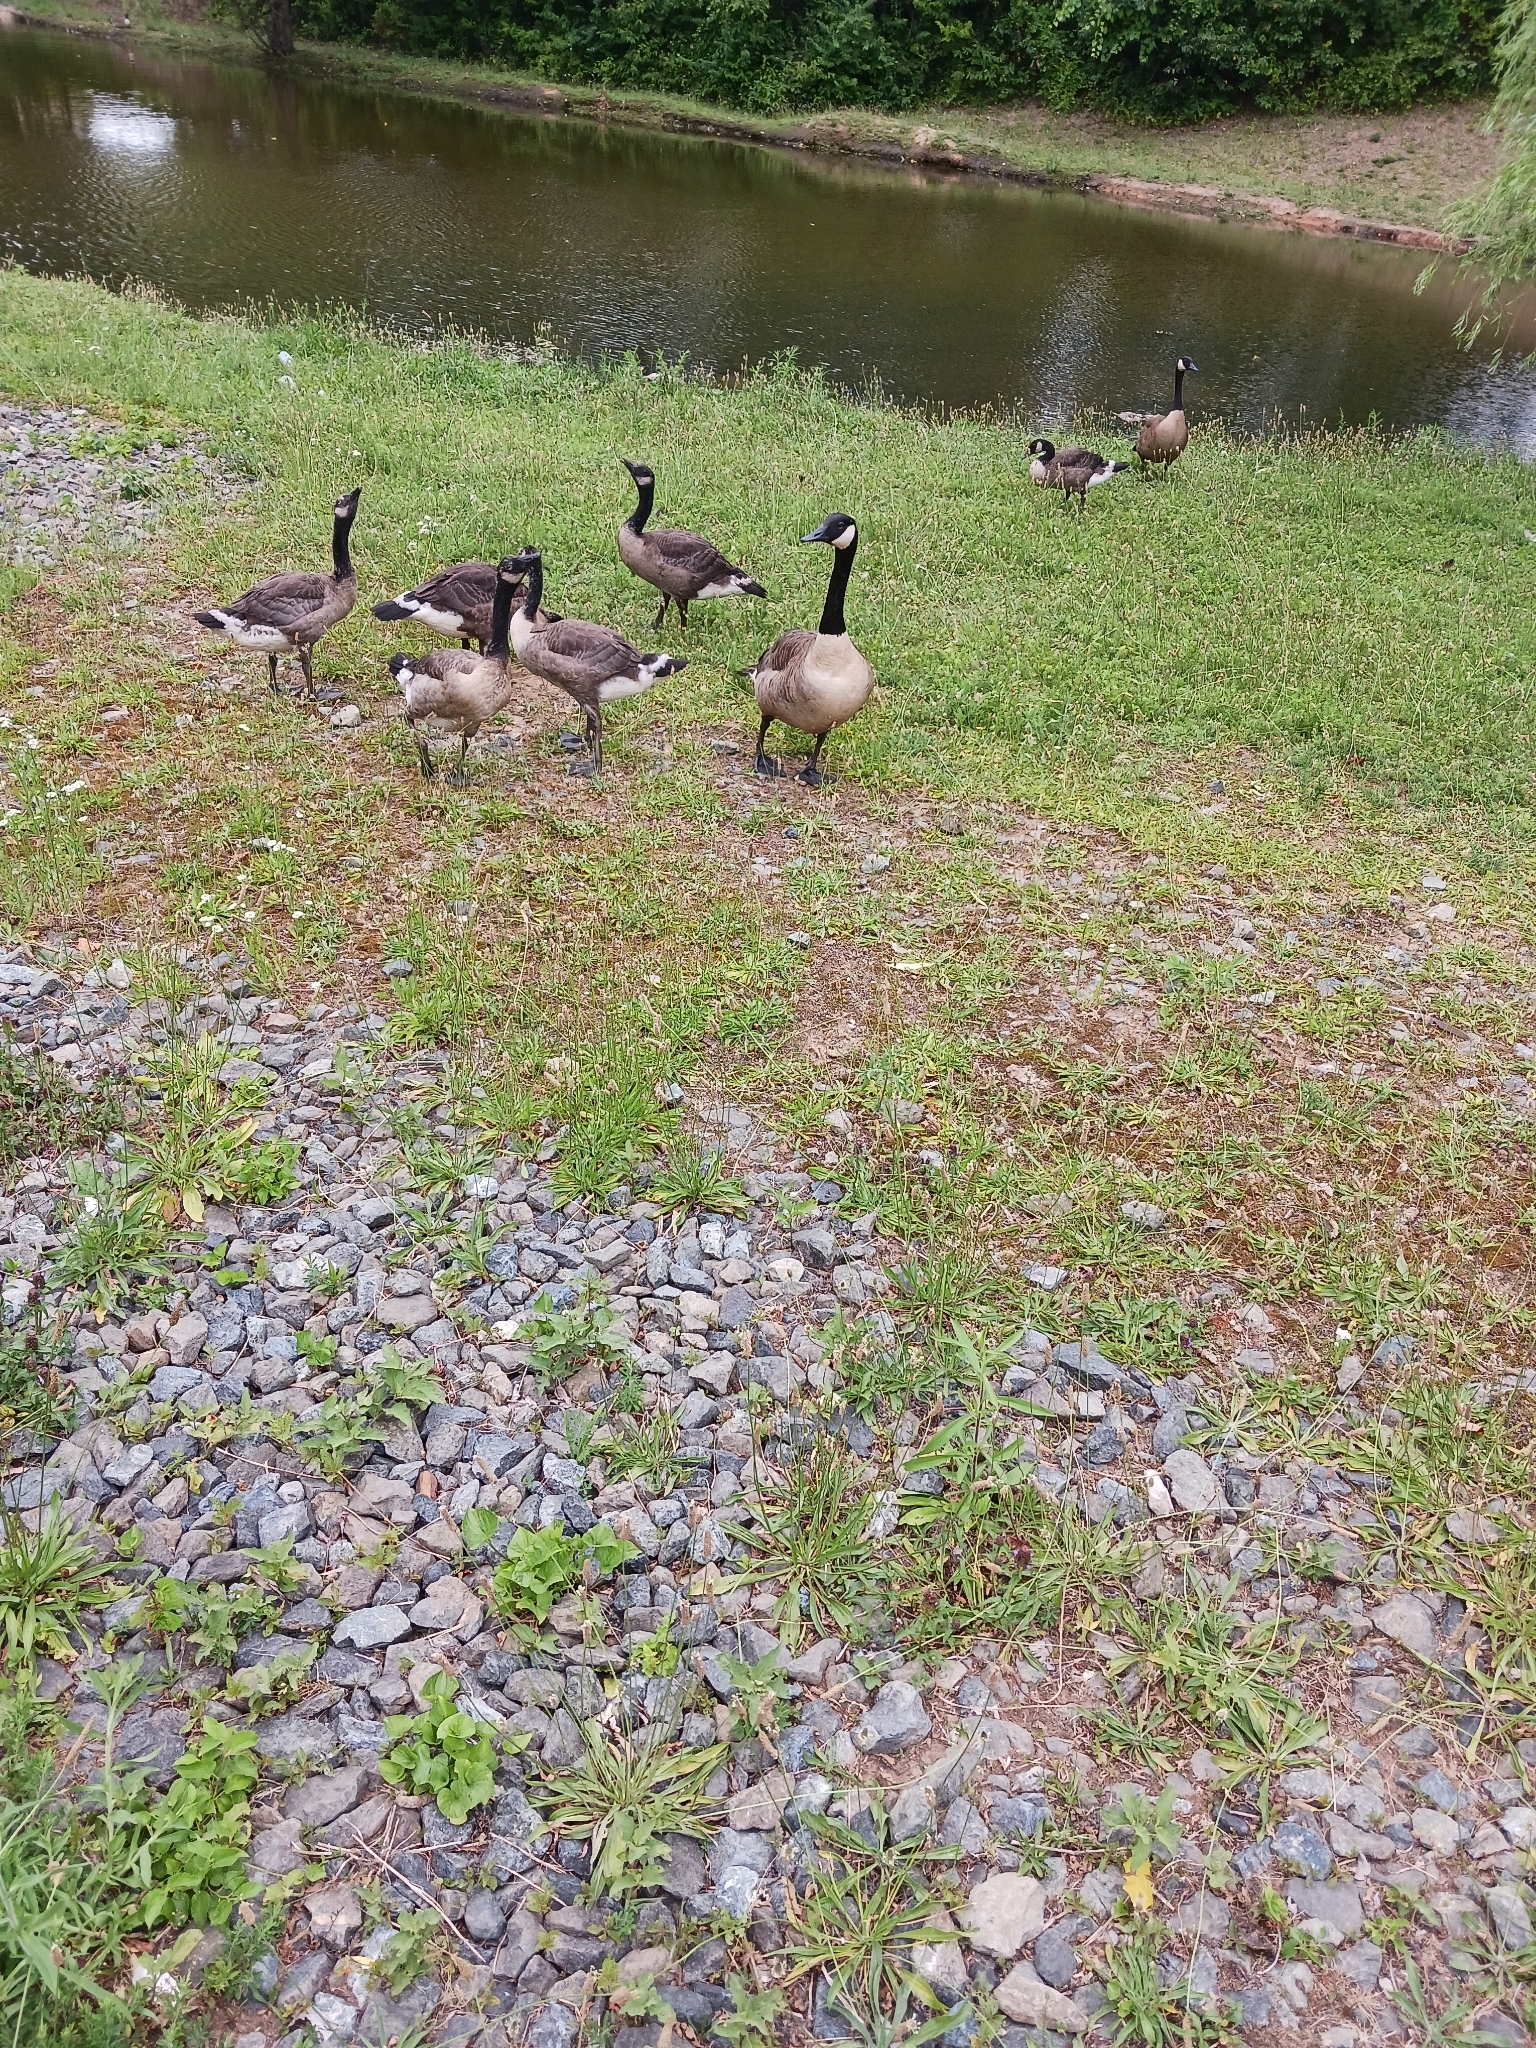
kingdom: Animalia
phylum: Chordata
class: Aves
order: Anseriformes
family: Anatidae
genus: Branta
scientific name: Branta canadensis
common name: Canada goose
